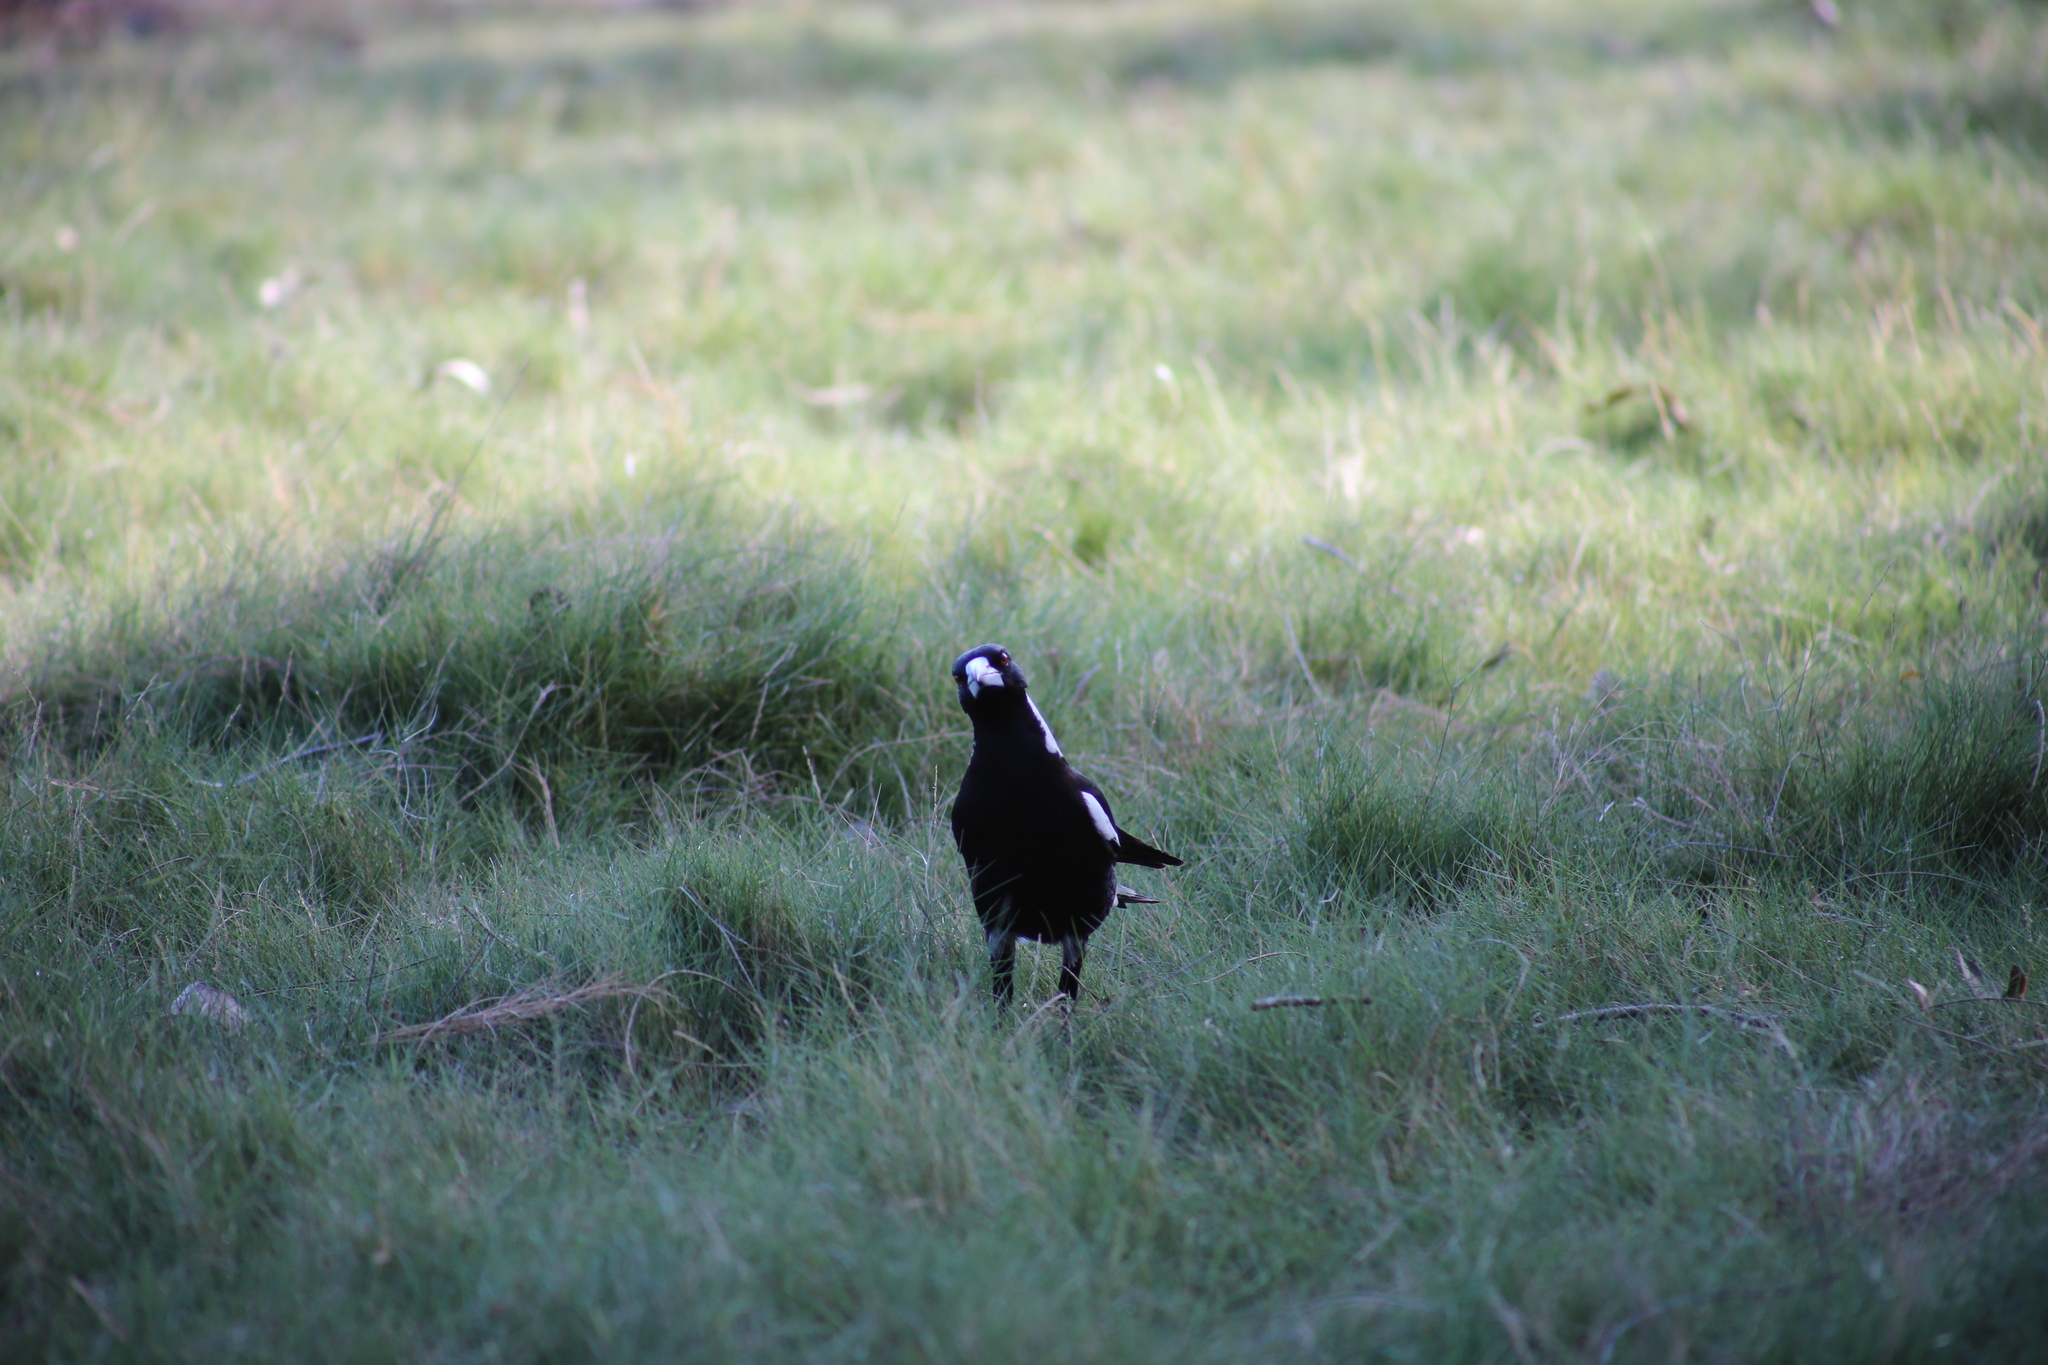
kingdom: Animalia
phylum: Chordata
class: Aves
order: Passeriformes
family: Cracticidae
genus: Gymnorhina
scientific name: Gymnorhina tibicen
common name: Australian magpie
